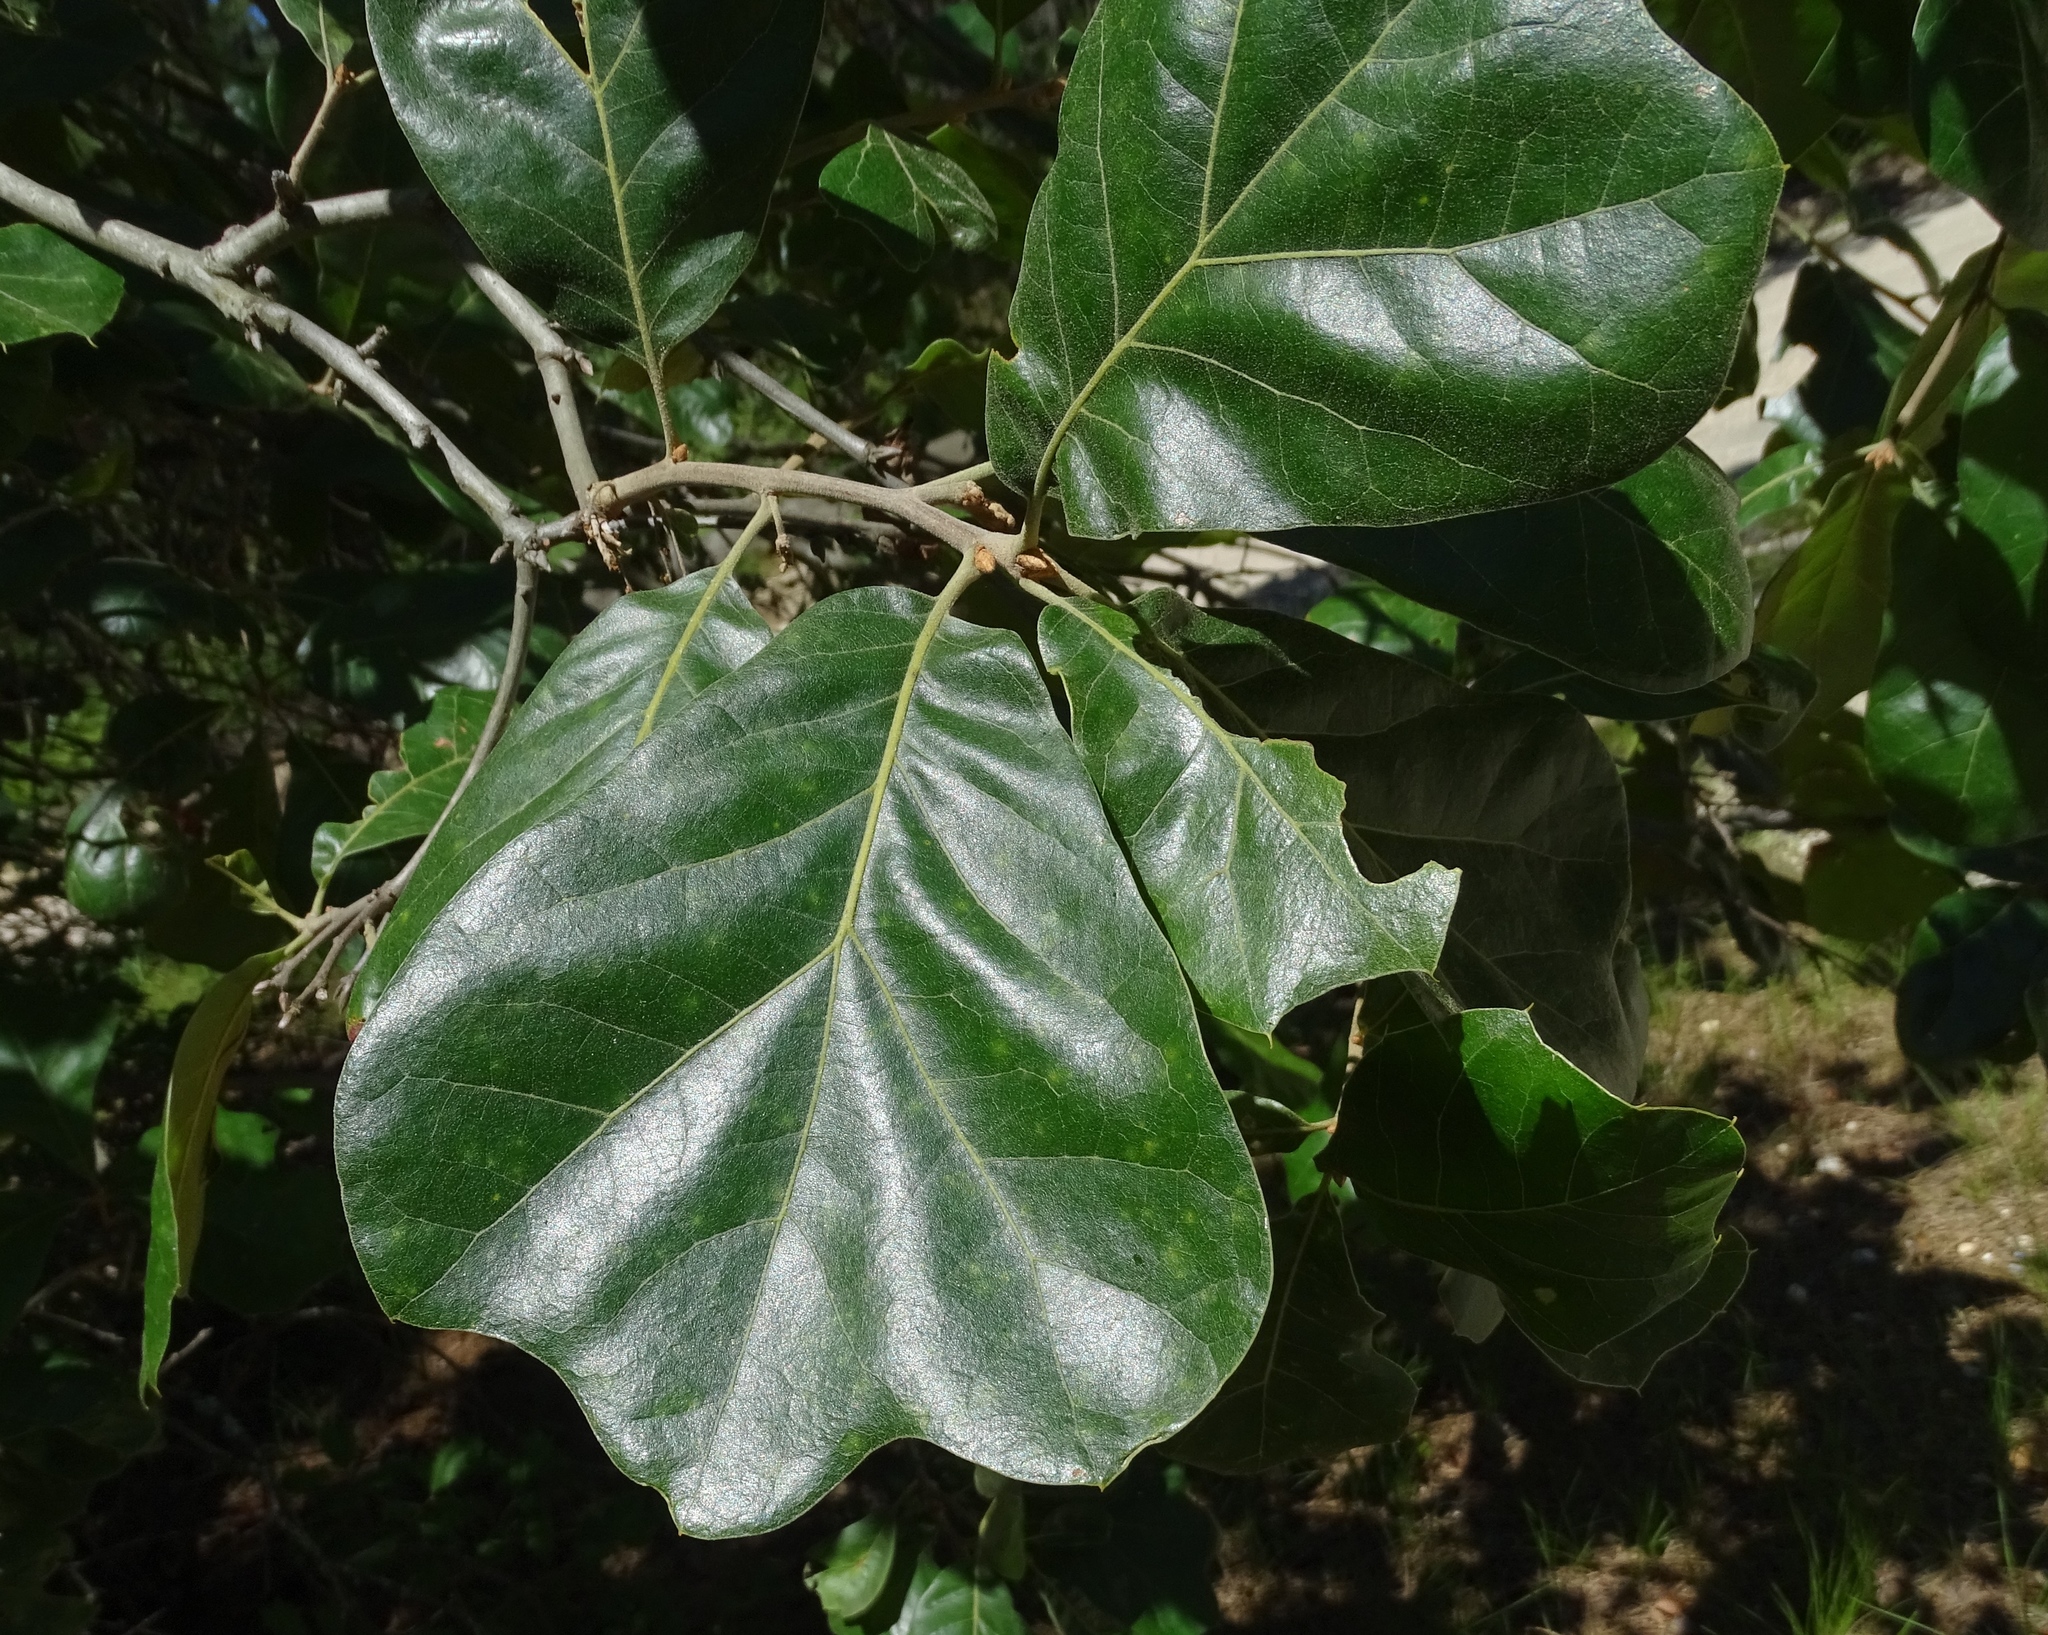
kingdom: Plantae
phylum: Tracheophyta
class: Magnoliopsida
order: Fagales
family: Fagaceae
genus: Quercus
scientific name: Quercus marilandica
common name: Blackjack oak
